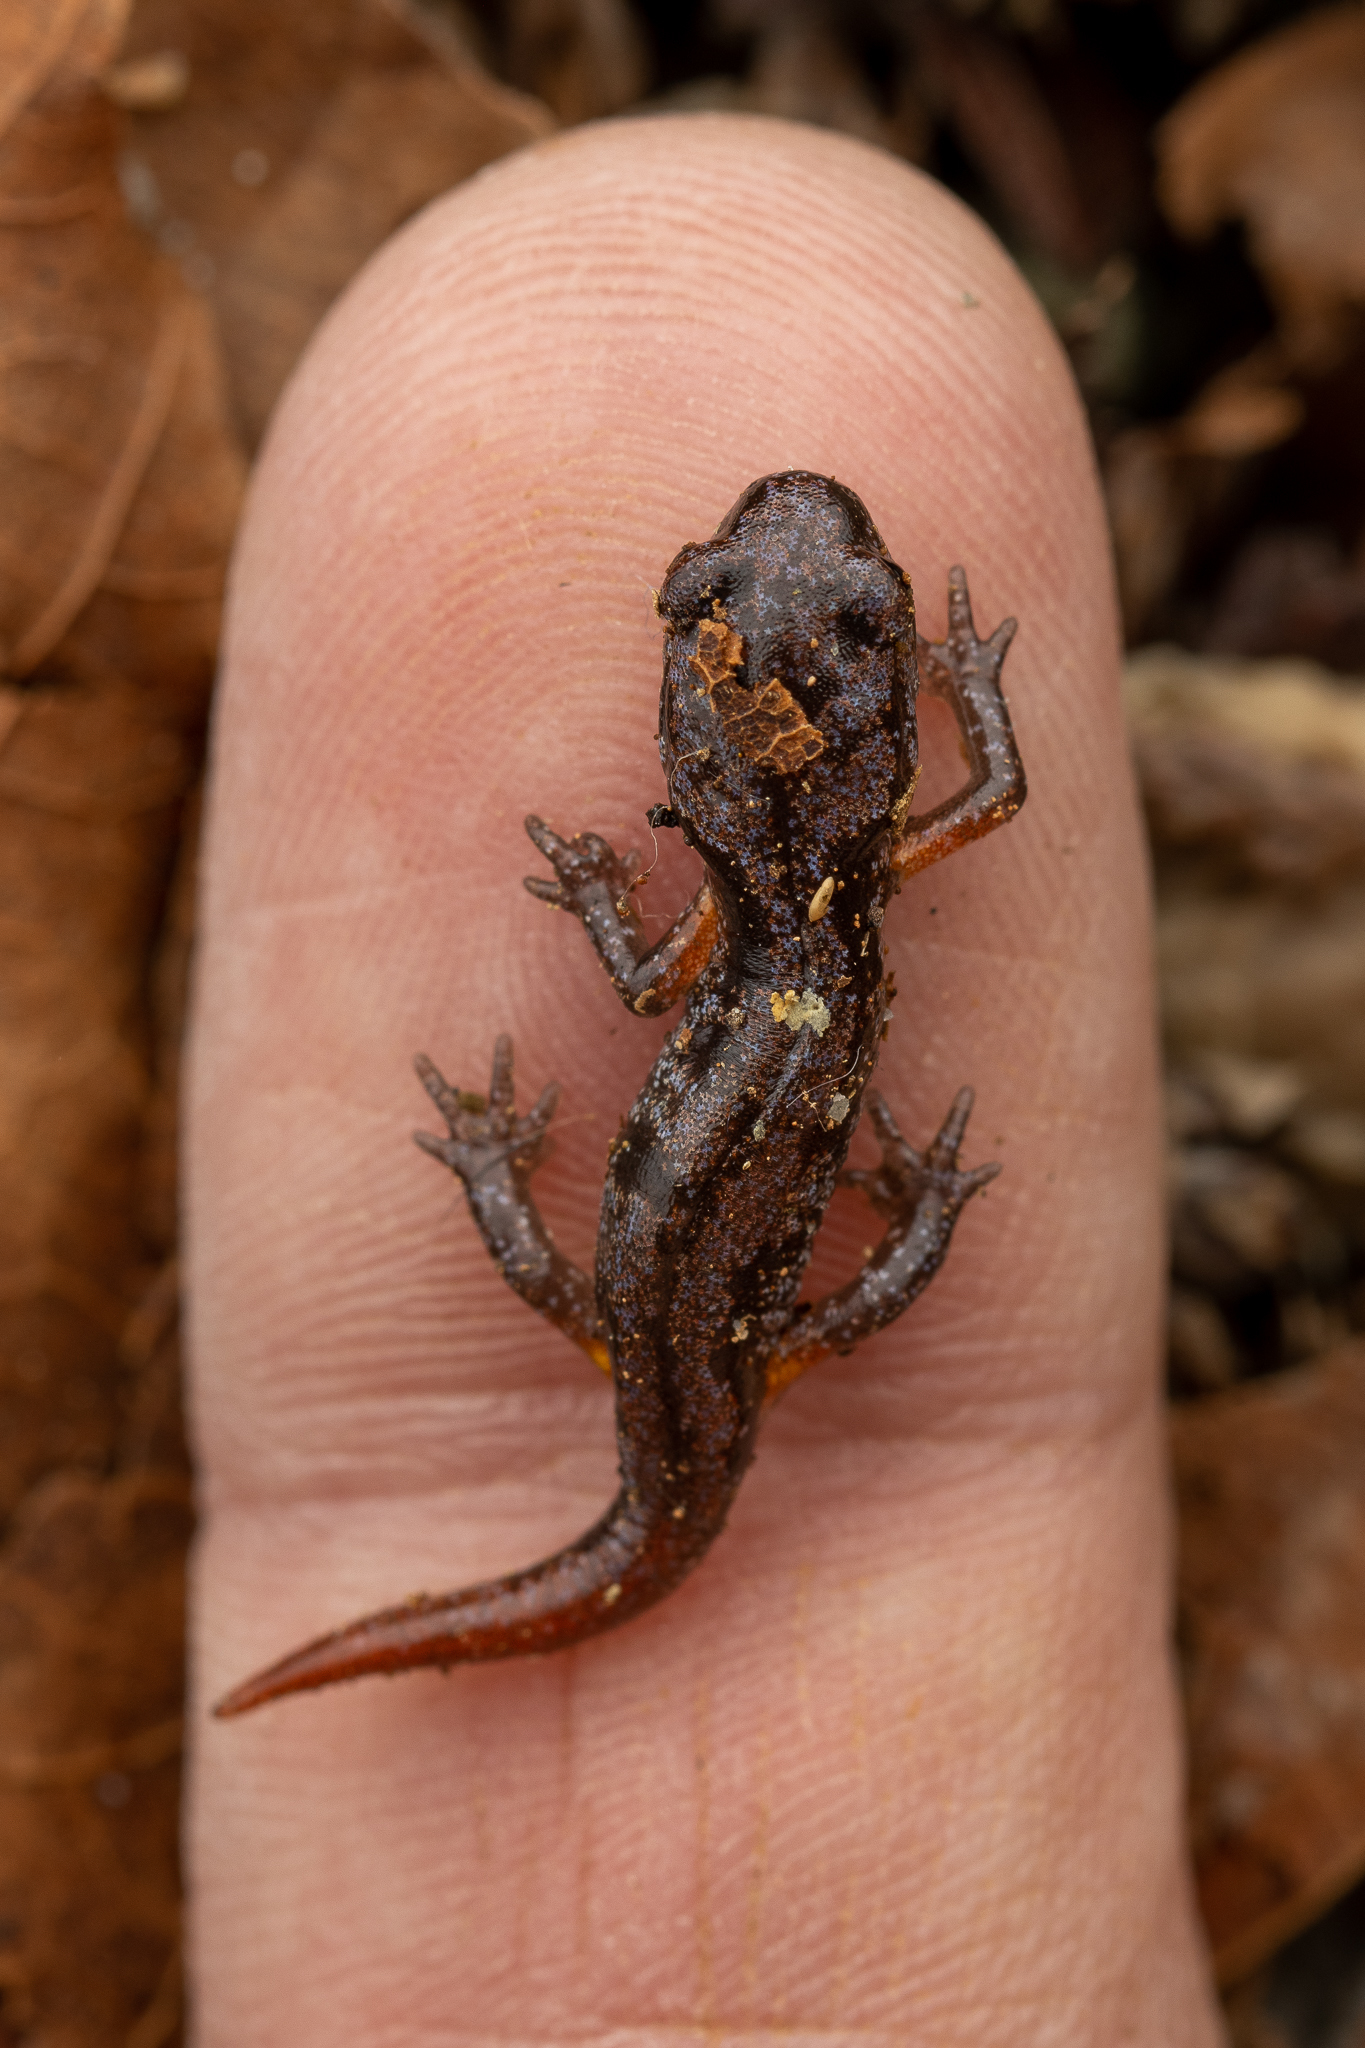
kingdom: Animalia
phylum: Chordata
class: Amphibia
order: Caudata
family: Plethodontidae
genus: Ensatina
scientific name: Ensatina eschscholtzii
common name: Ensatina
